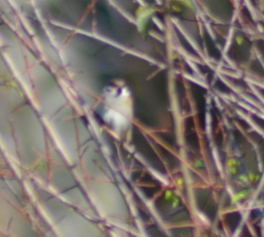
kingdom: Animalia
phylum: Chordata
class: Aves
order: Passeriformes
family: Passeridae
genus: Passer
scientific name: Passer montanus
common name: Eurasian tree sparrow
